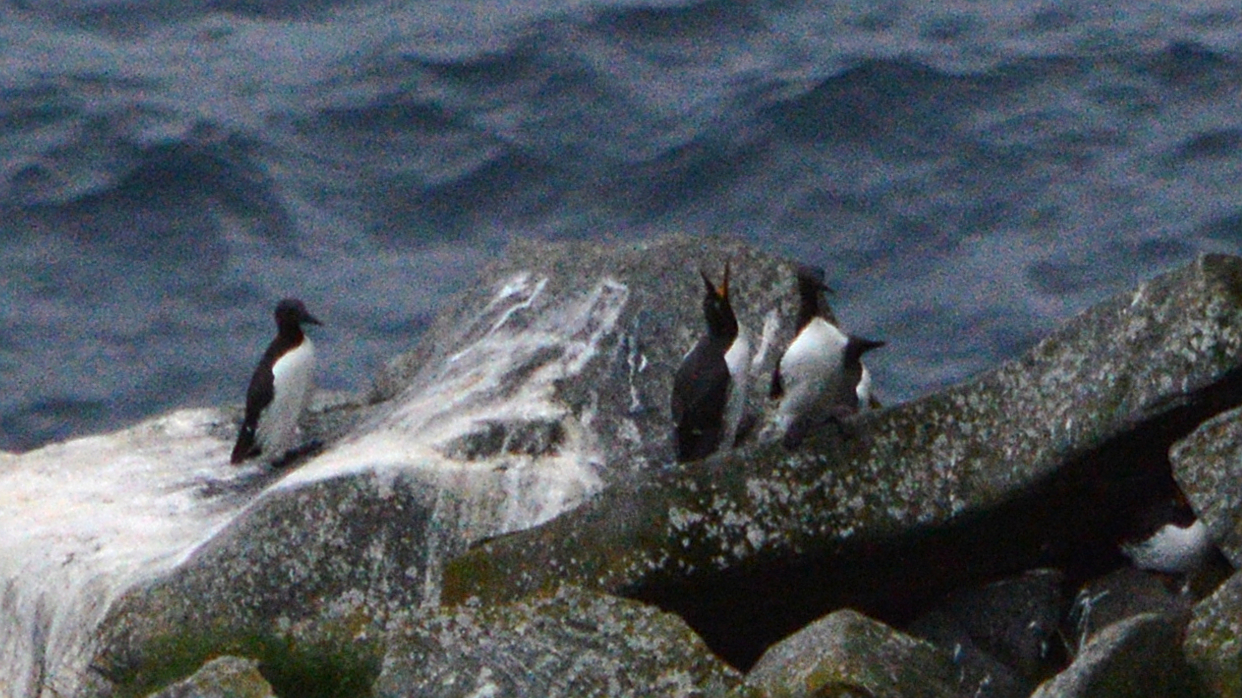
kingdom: Animalia
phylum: Chordata
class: Aves
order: Charadriiformes
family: Alcidae
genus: Uria
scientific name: Uria aalge
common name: Common murre
